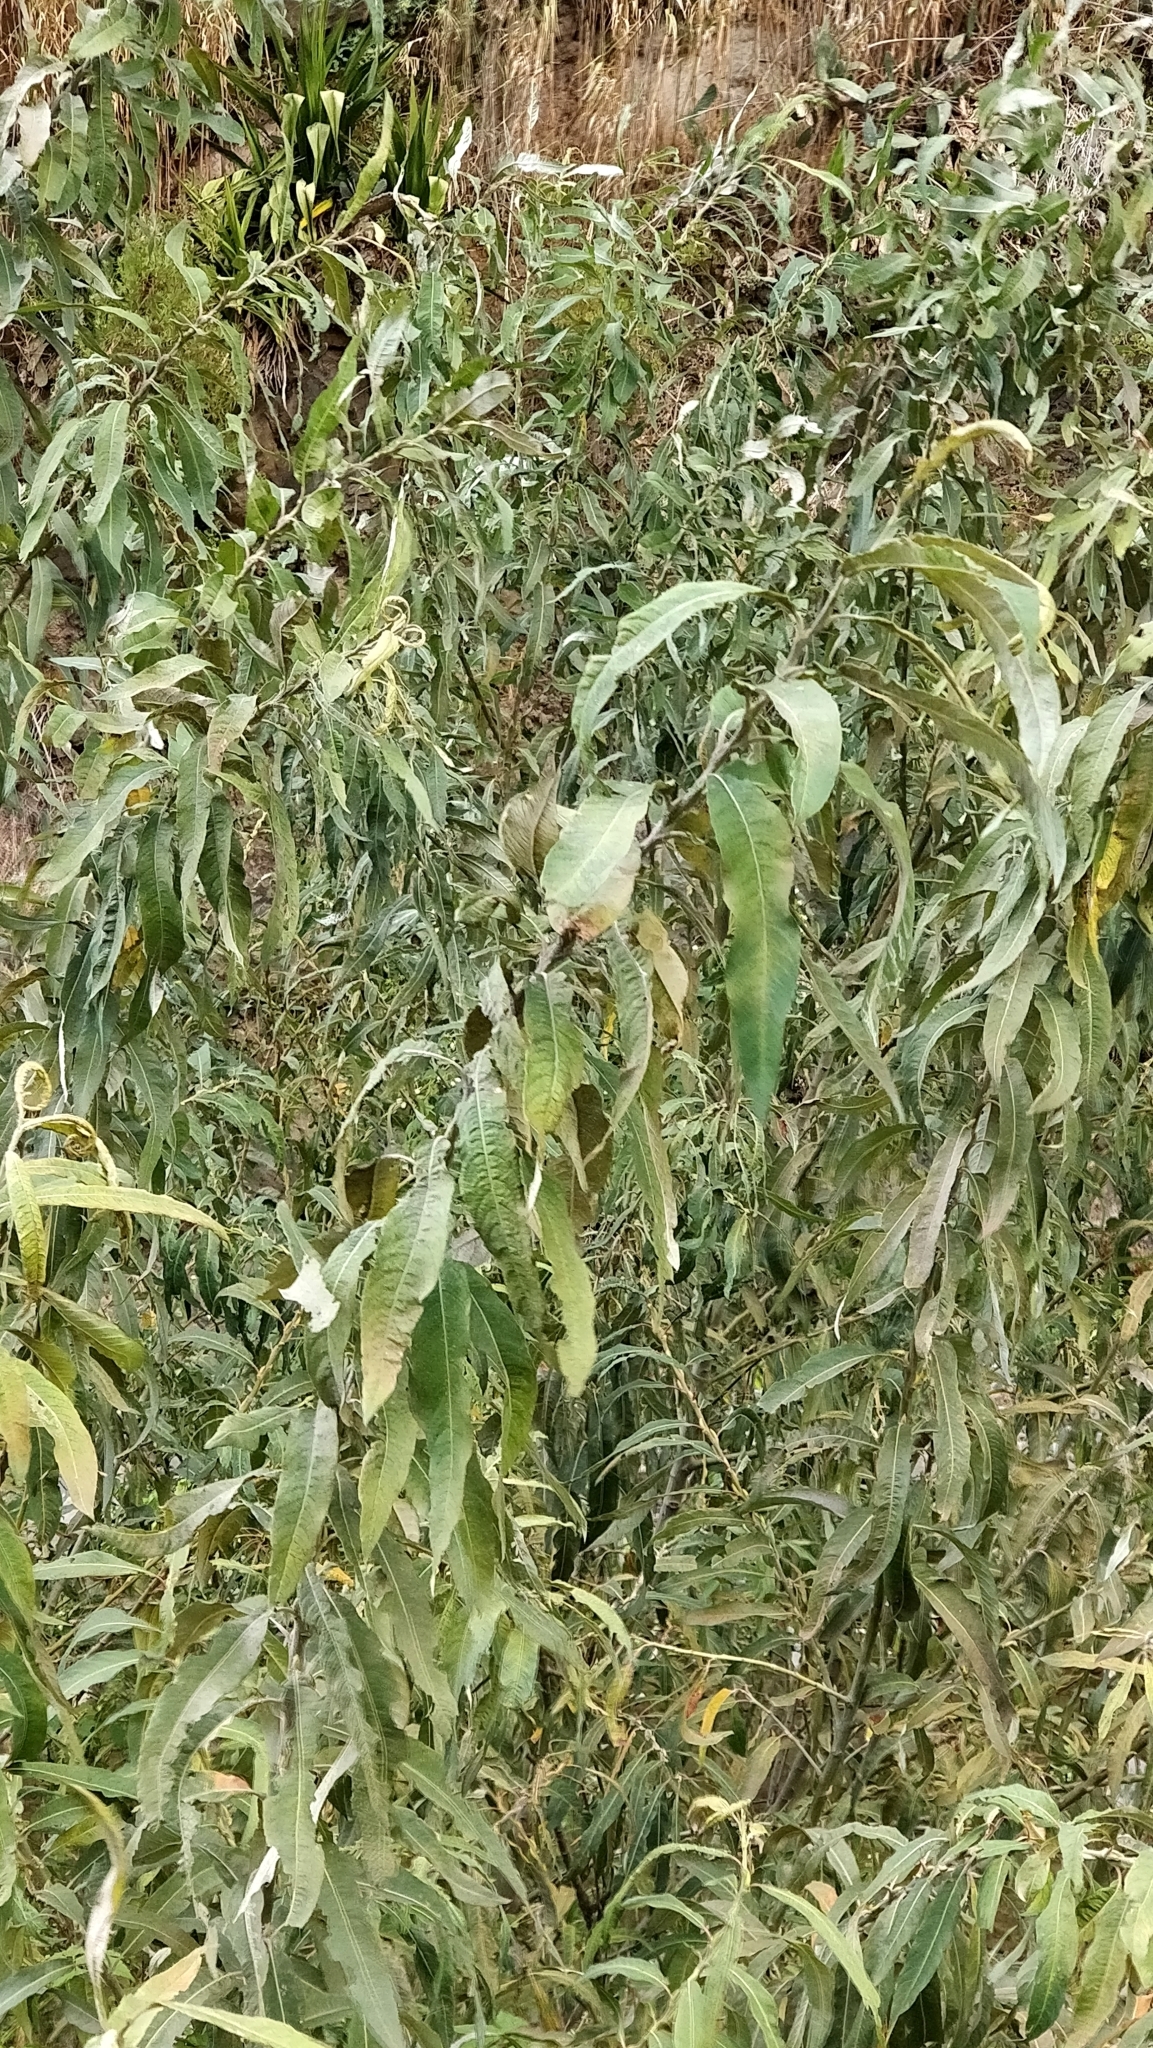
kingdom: Plantae
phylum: Tracheophyta
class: Magnoliopsida
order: Malpighiales
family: Salicaceae
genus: Salix
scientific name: Salix canariensis
